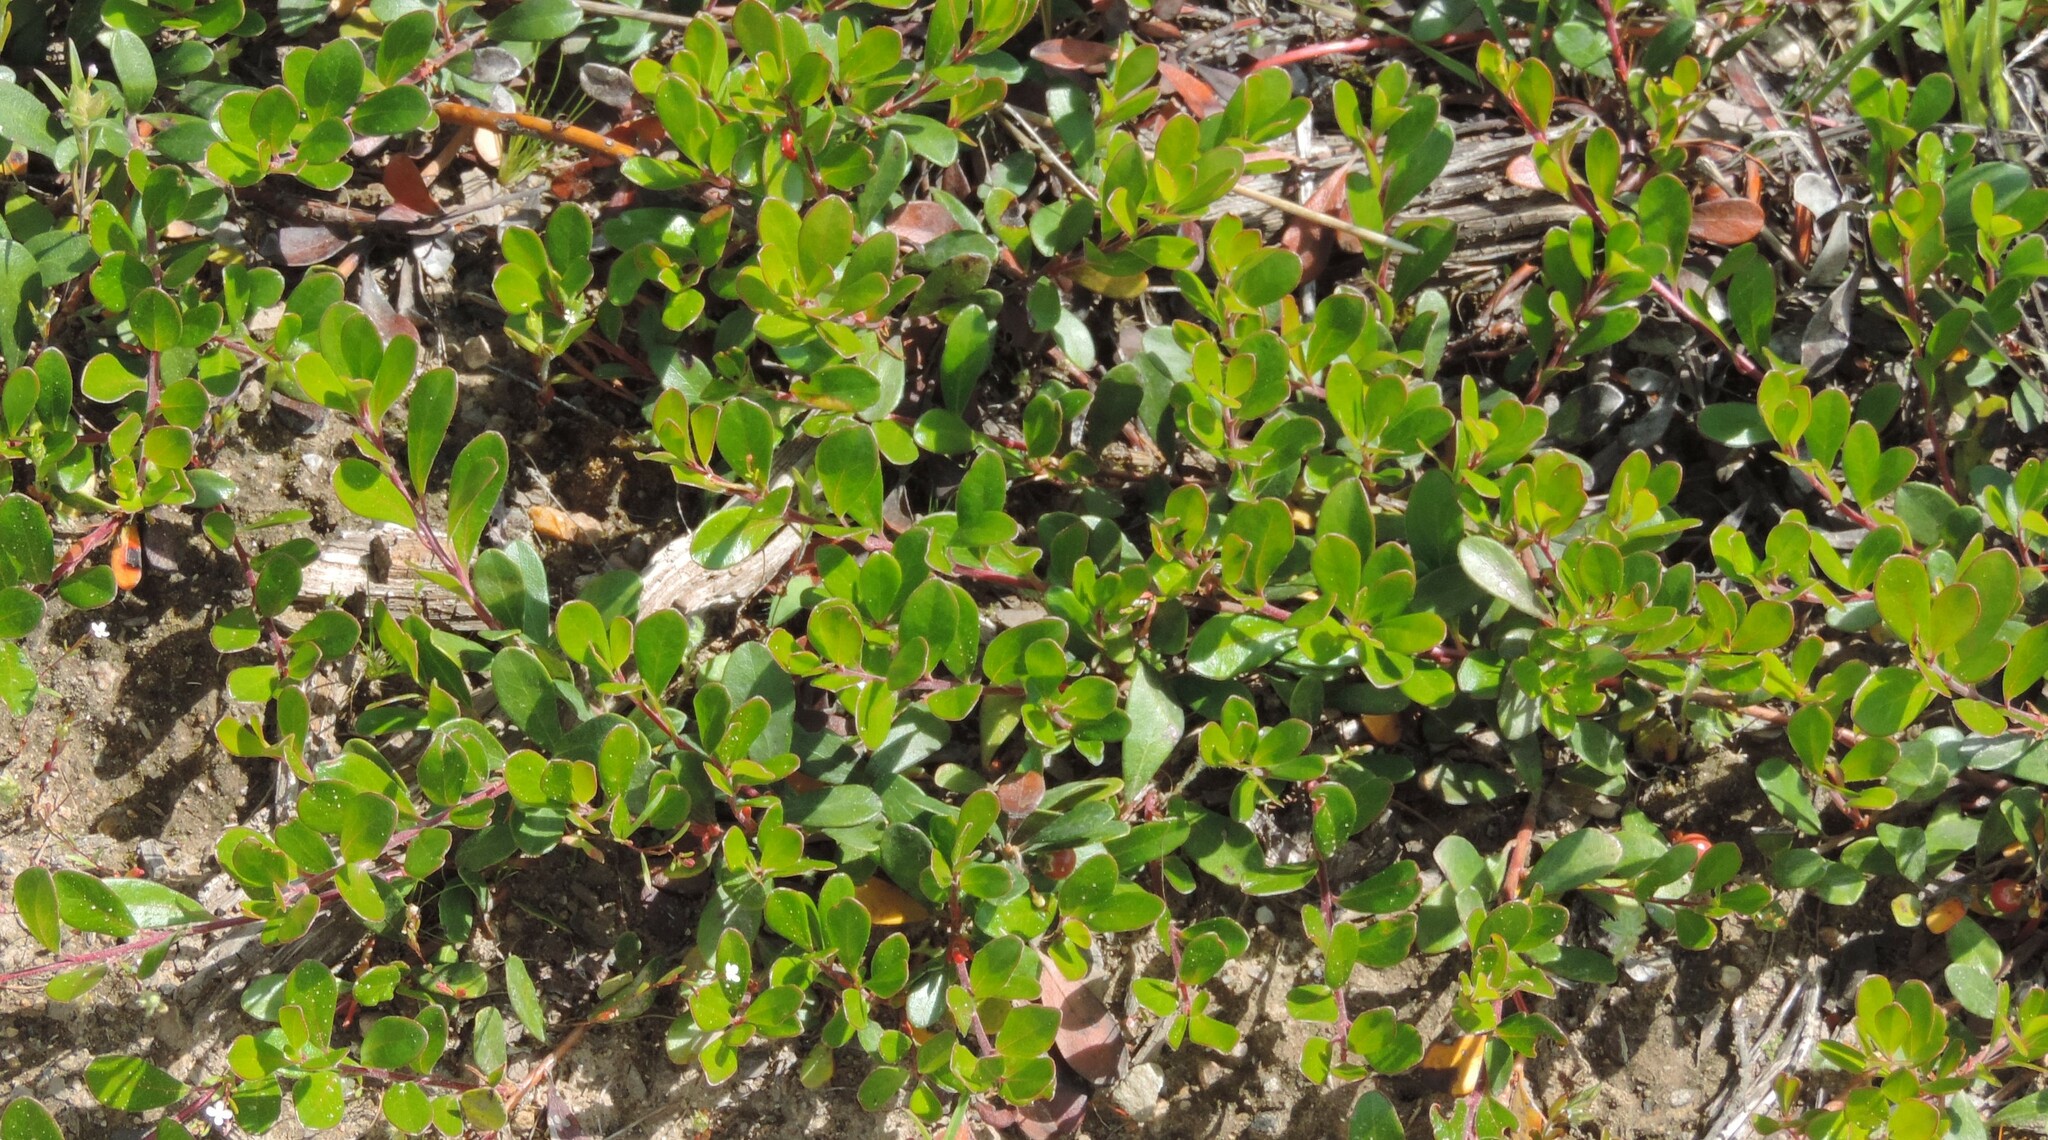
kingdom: Plantae
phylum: Tracheophyta
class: Magnoliopsida
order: Ericales
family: Ericaceae
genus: Arctostaphylos
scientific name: Arctostaphylos uva-ursi
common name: Bearberry
